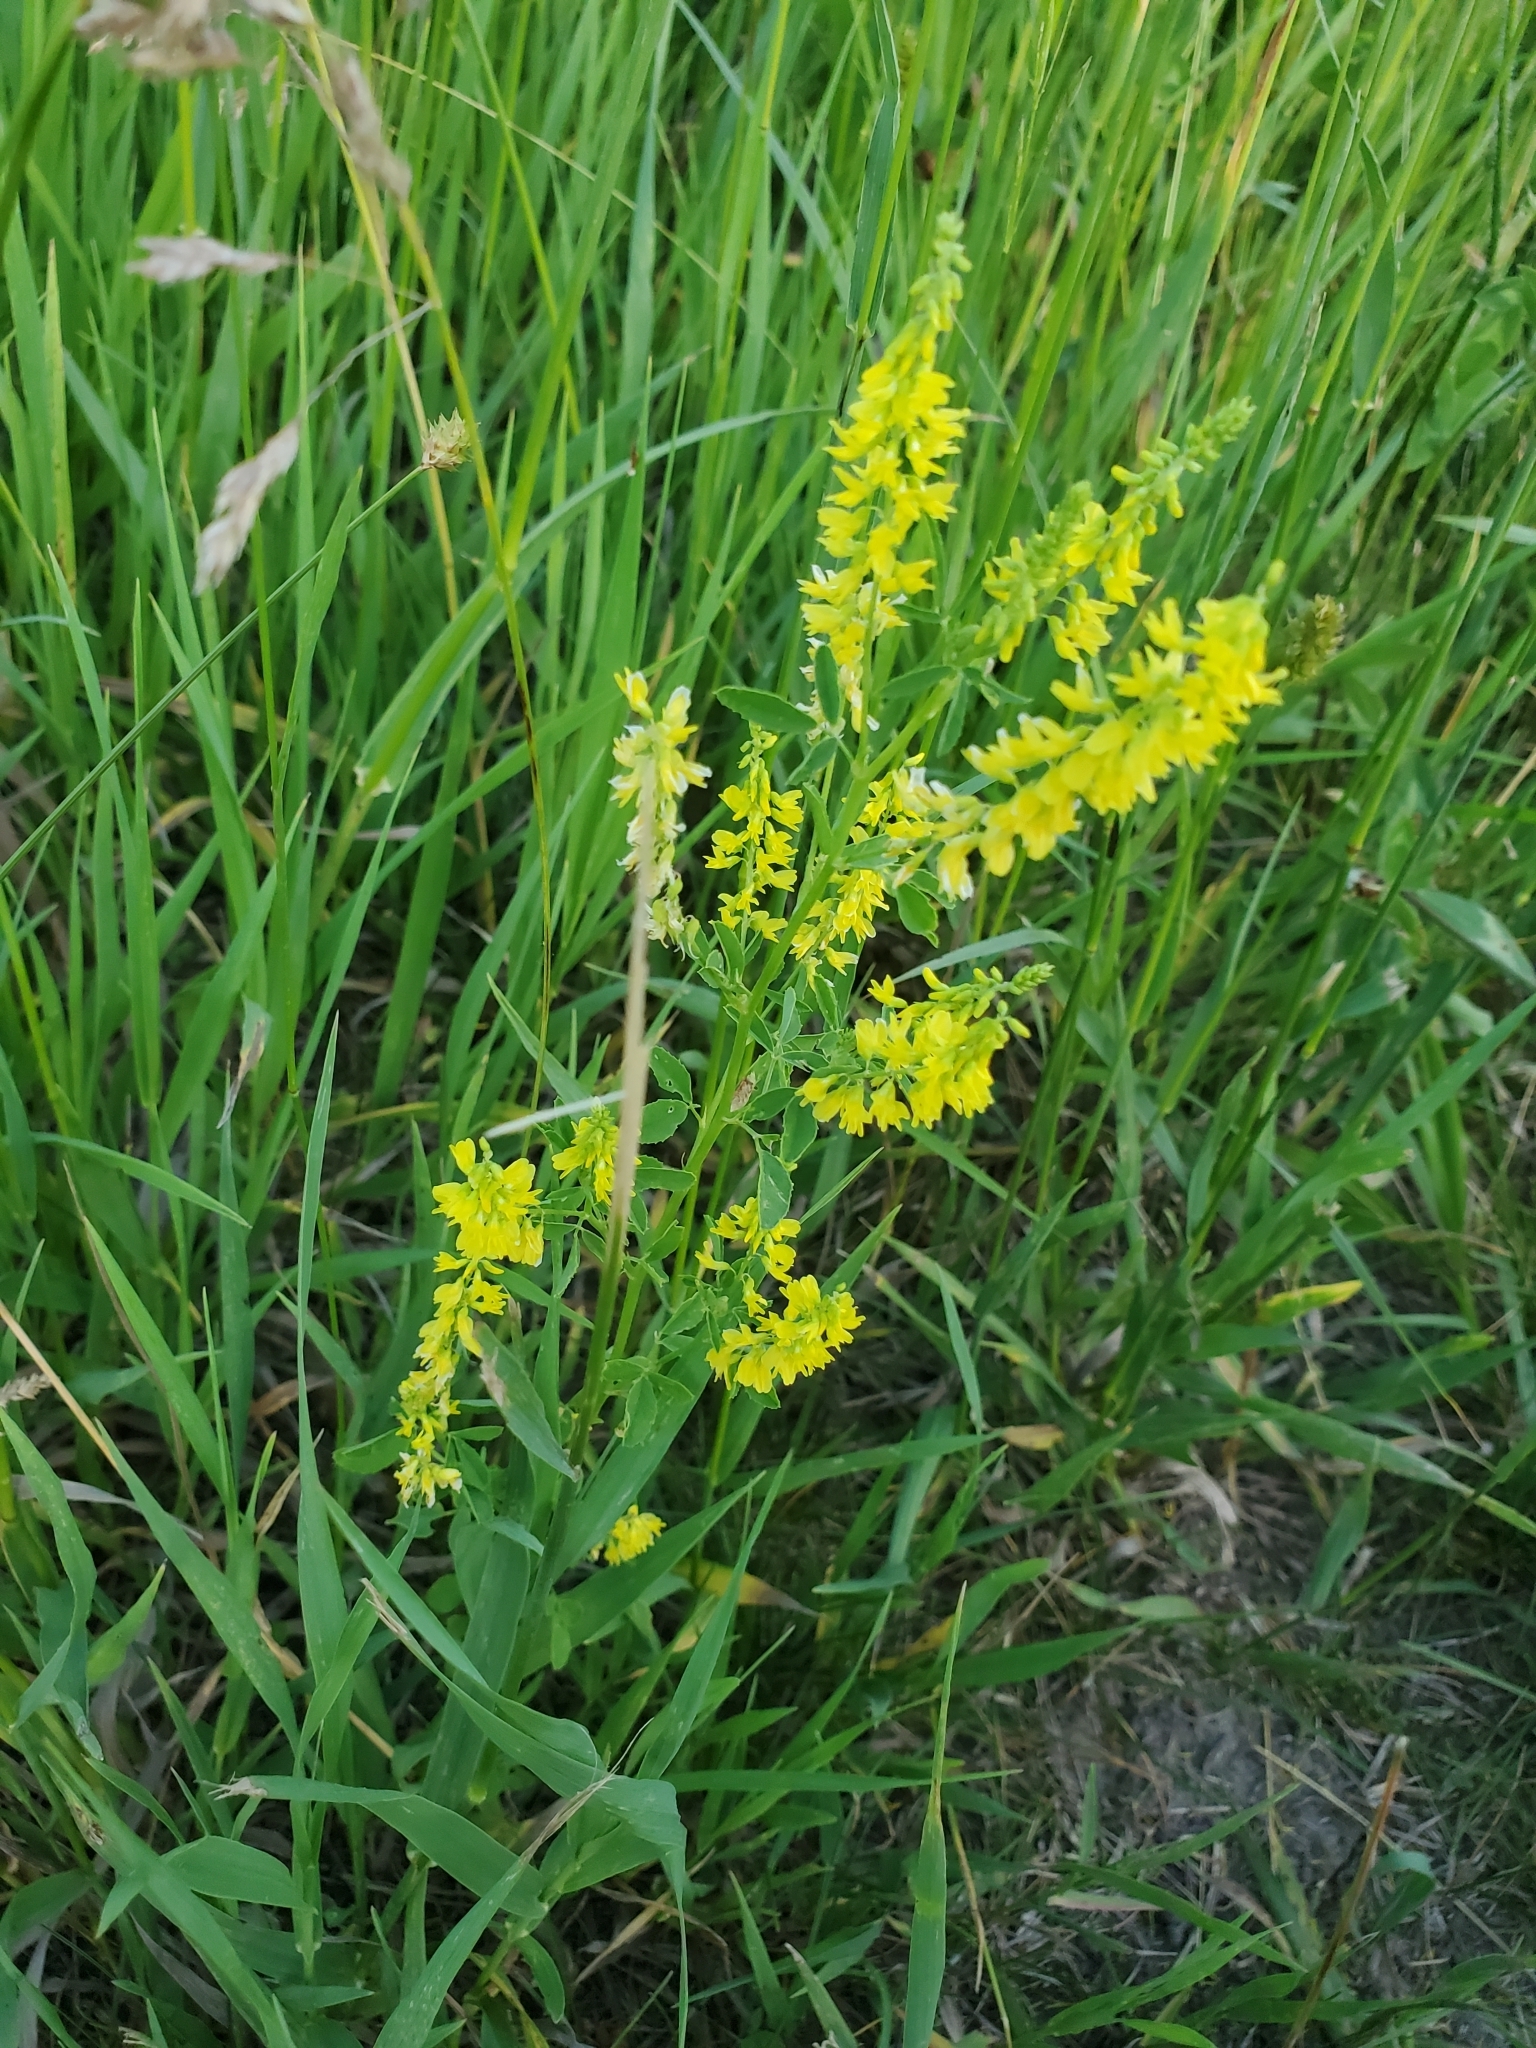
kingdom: Plantae
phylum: Tracheophyta
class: Magnoliopsida
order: Fabales
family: Fabaceae
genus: Melilotus
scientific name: Melilotus officinalis
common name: Sweetclover
